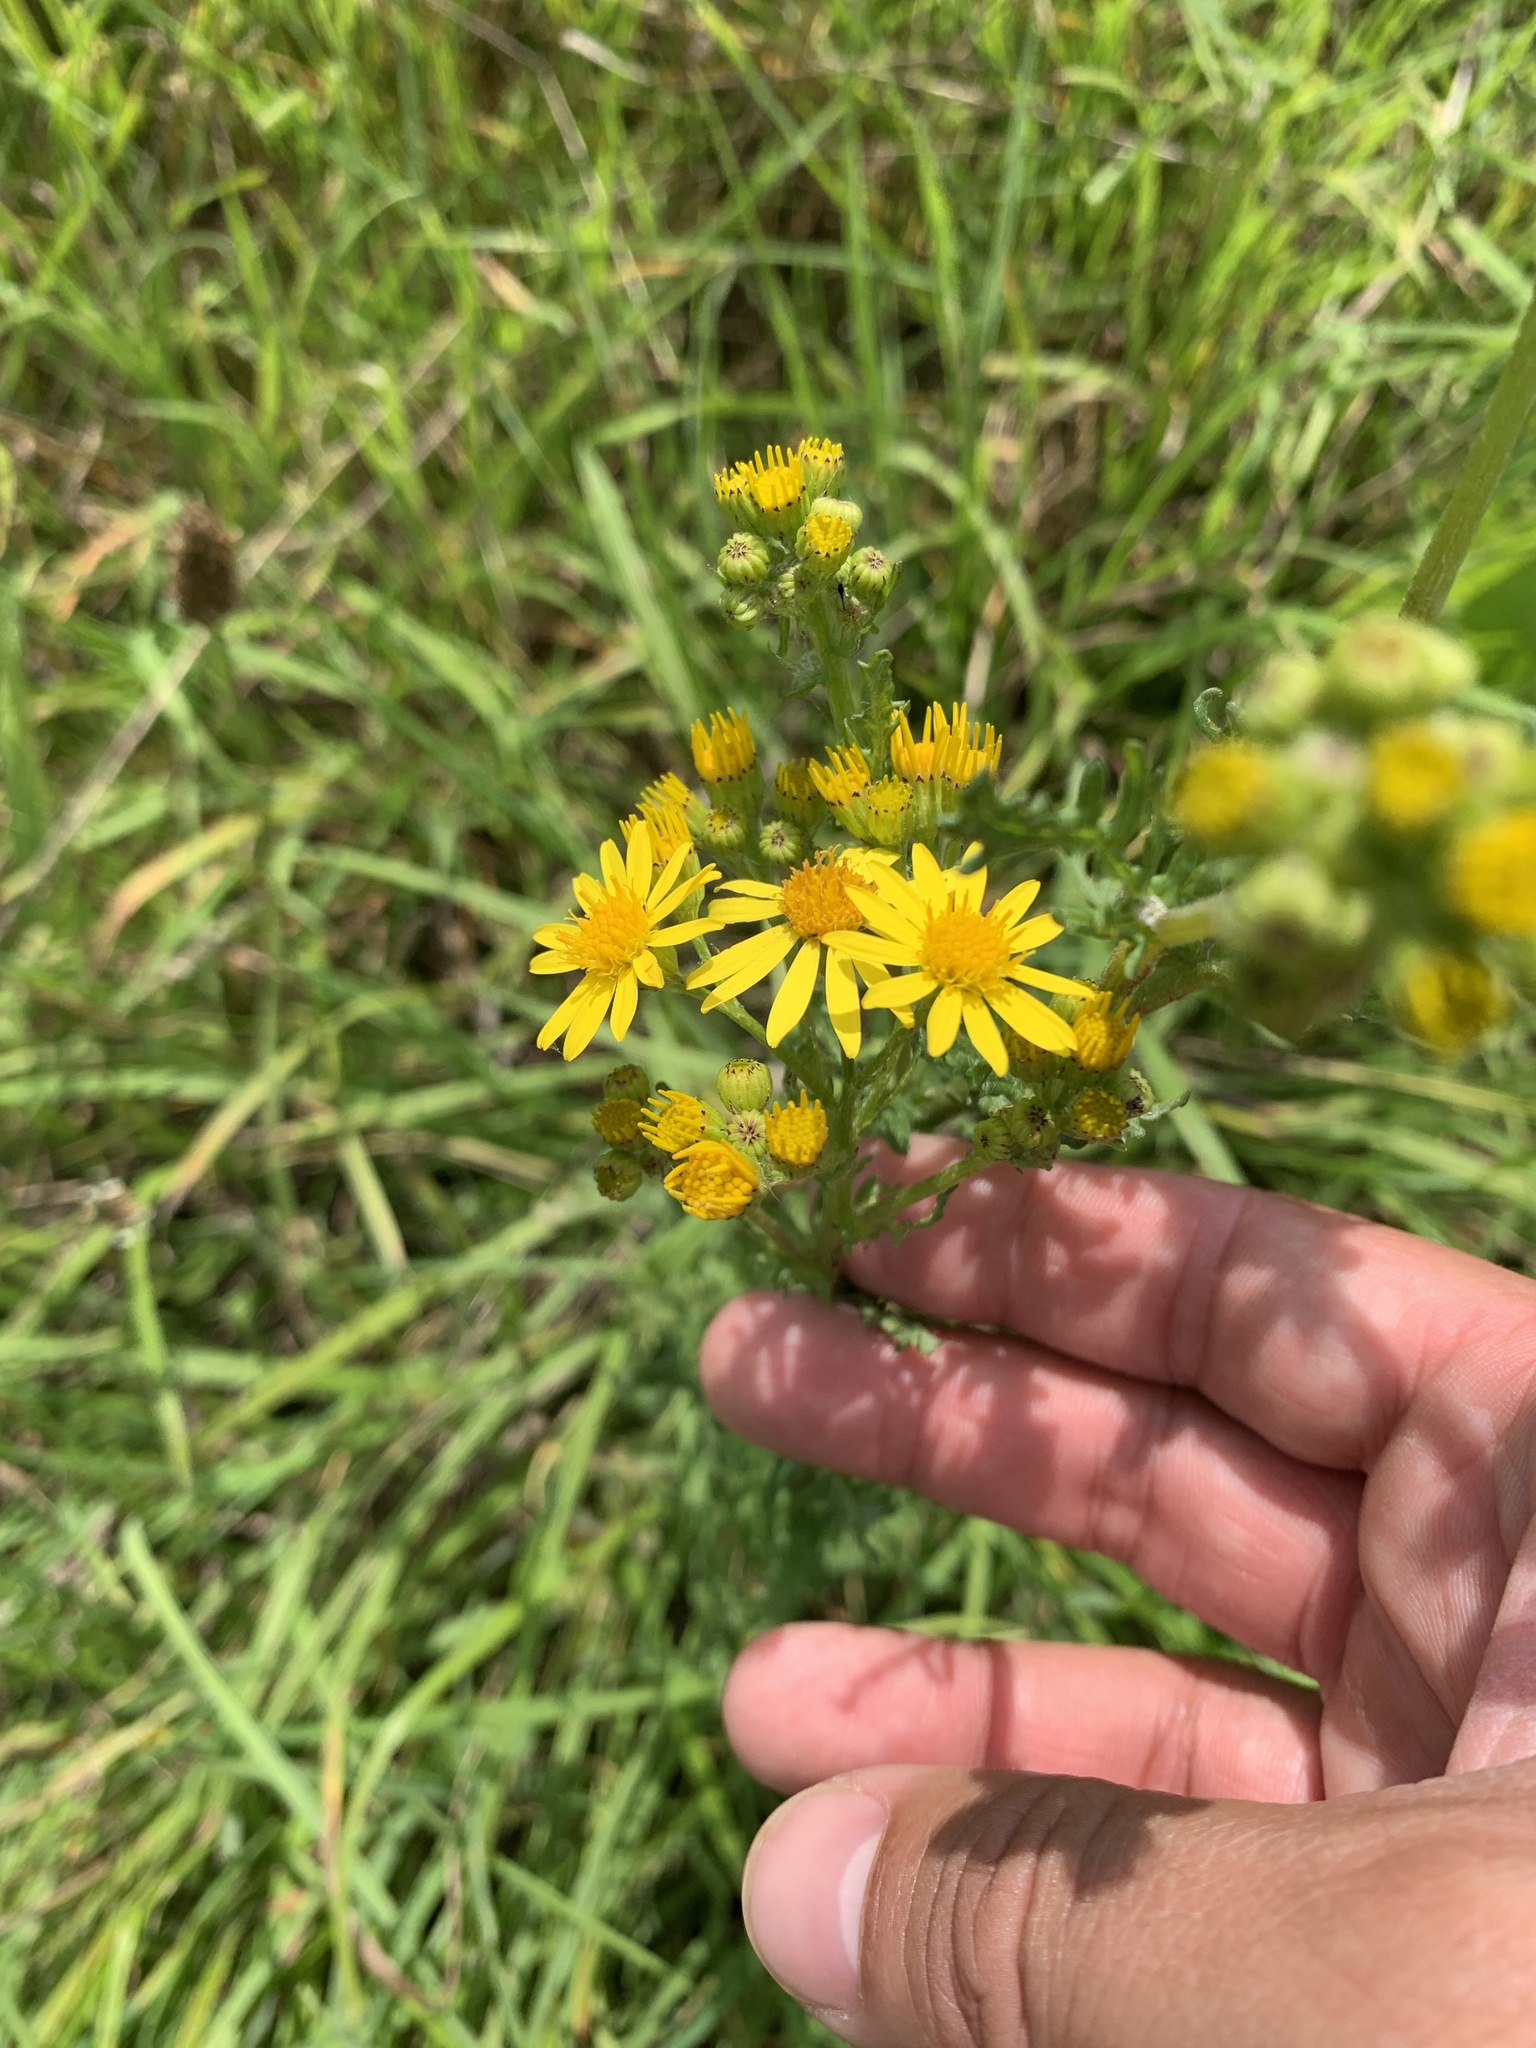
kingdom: Plantae
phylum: Tracheophyta
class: Magnoliopsida
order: Asterales
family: Asteraceae
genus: Jacobaea
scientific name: Jacobaea vulgaris
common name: Stinking willie
